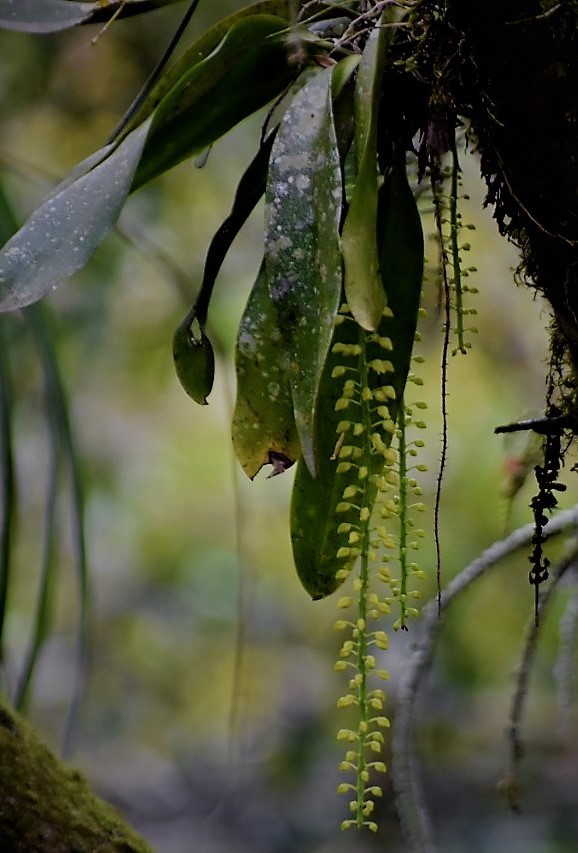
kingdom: Plantae
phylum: Tracheophyta
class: Liliopsida
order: Asparagales
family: Orchidaceae
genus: Notylia
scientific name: Notylia barkeri
